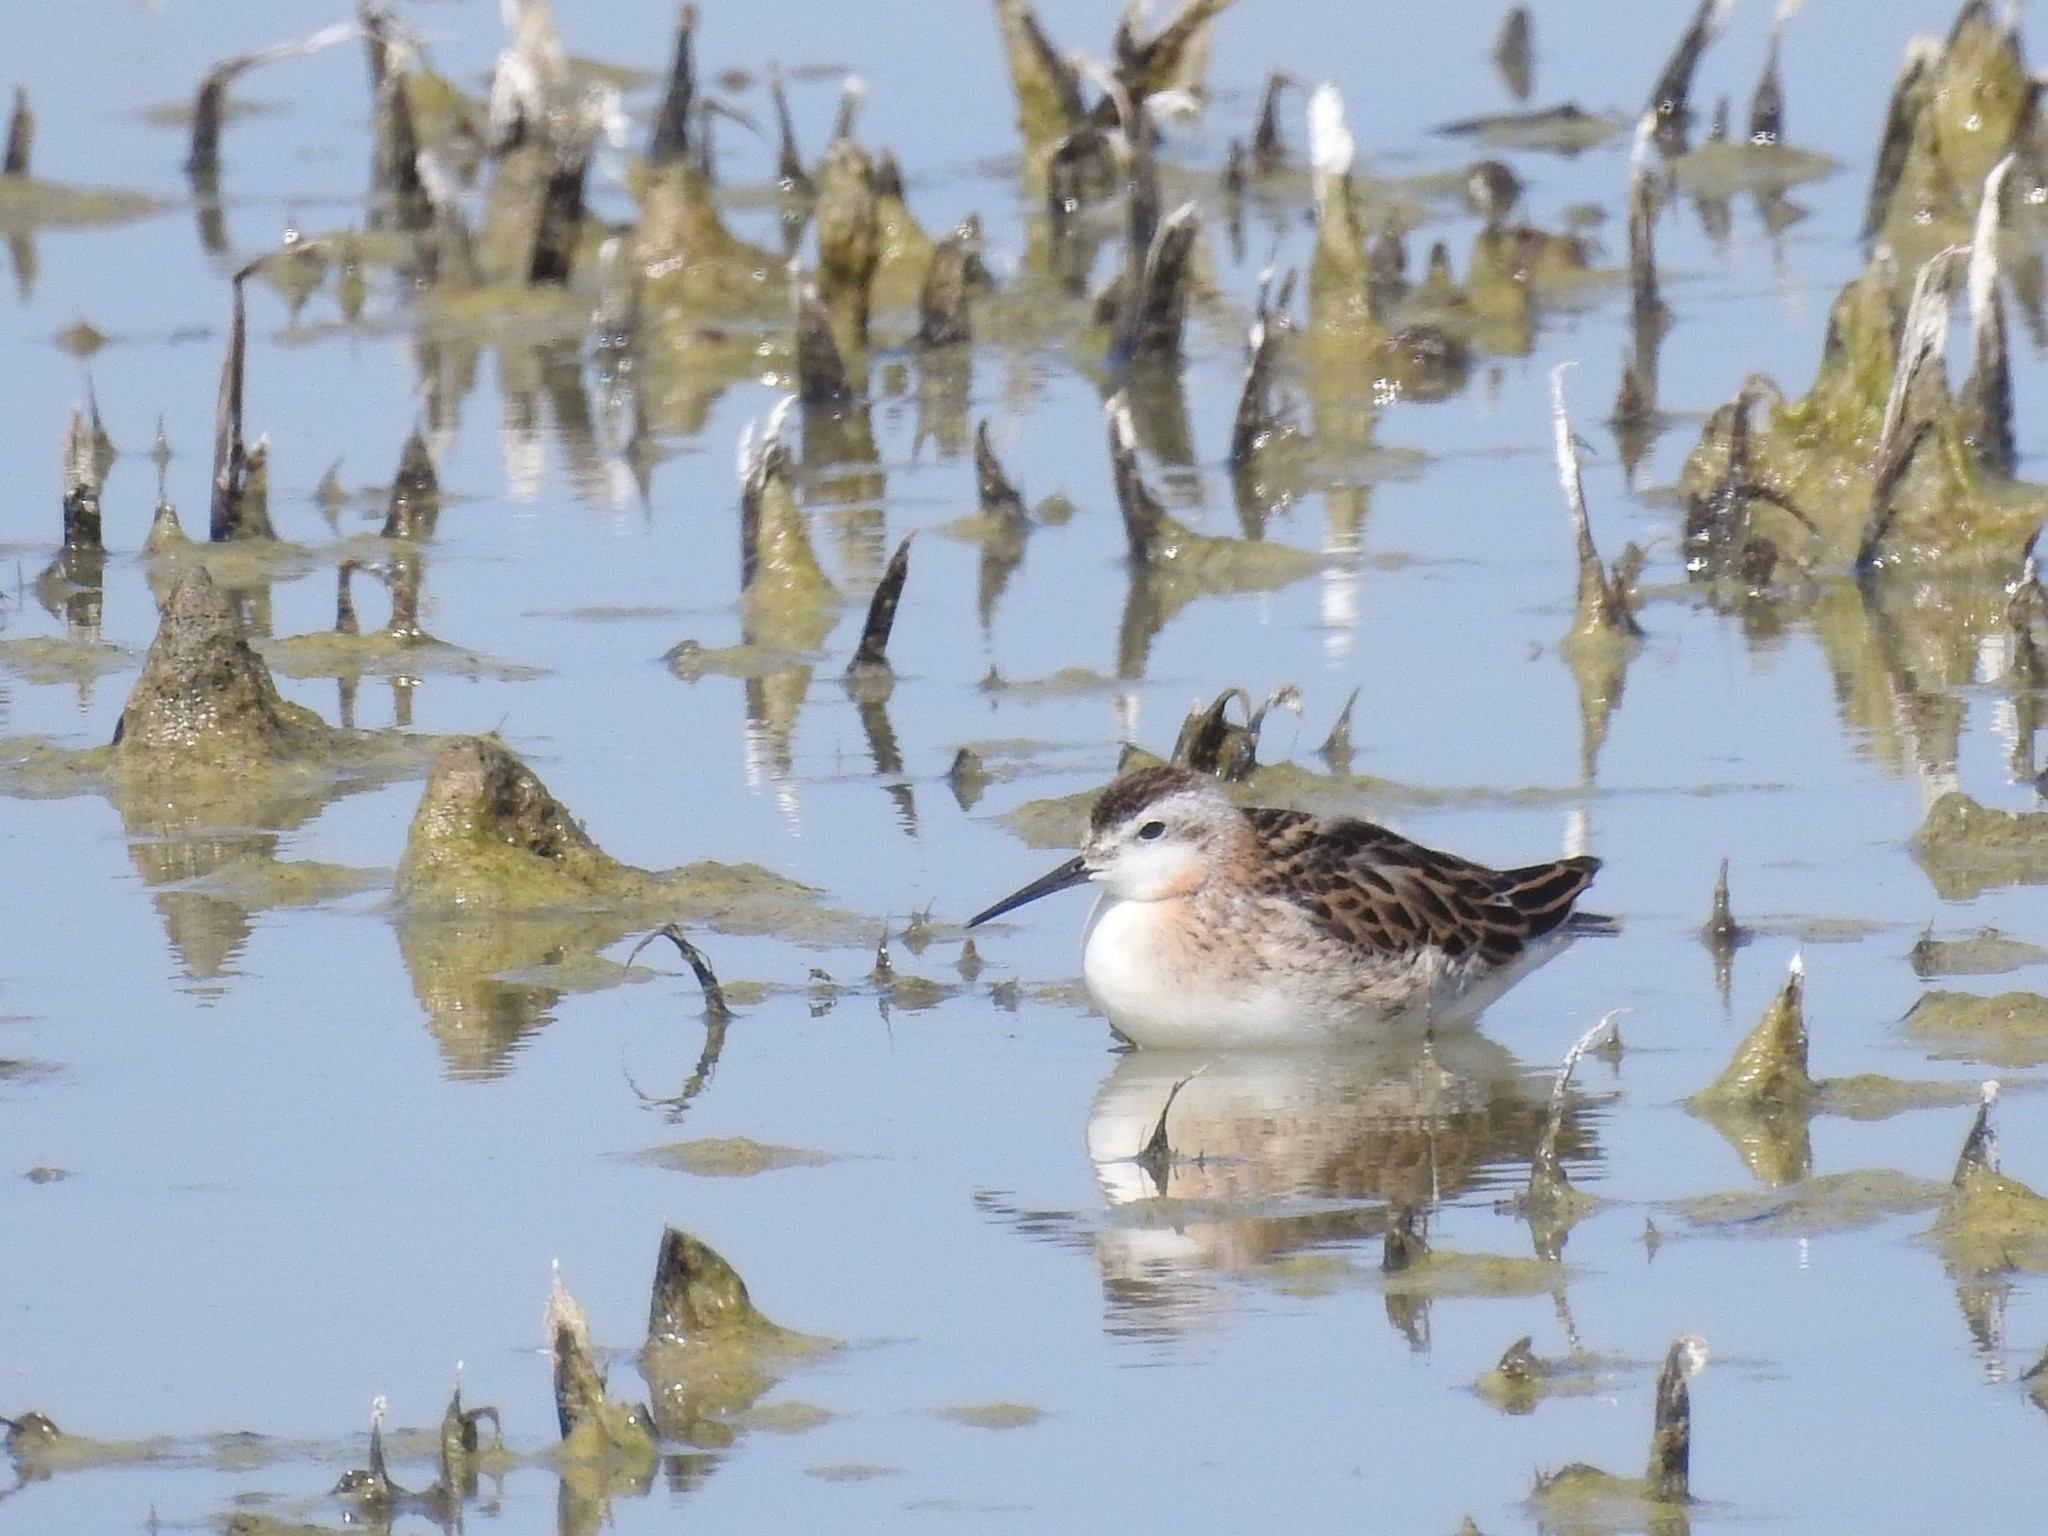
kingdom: Animalia
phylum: Chordata
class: Aves
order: Charadriiformes
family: Scolopacidae
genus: Phalaropus
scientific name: Phalaropus tricolor
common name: Wilson's phalarope
